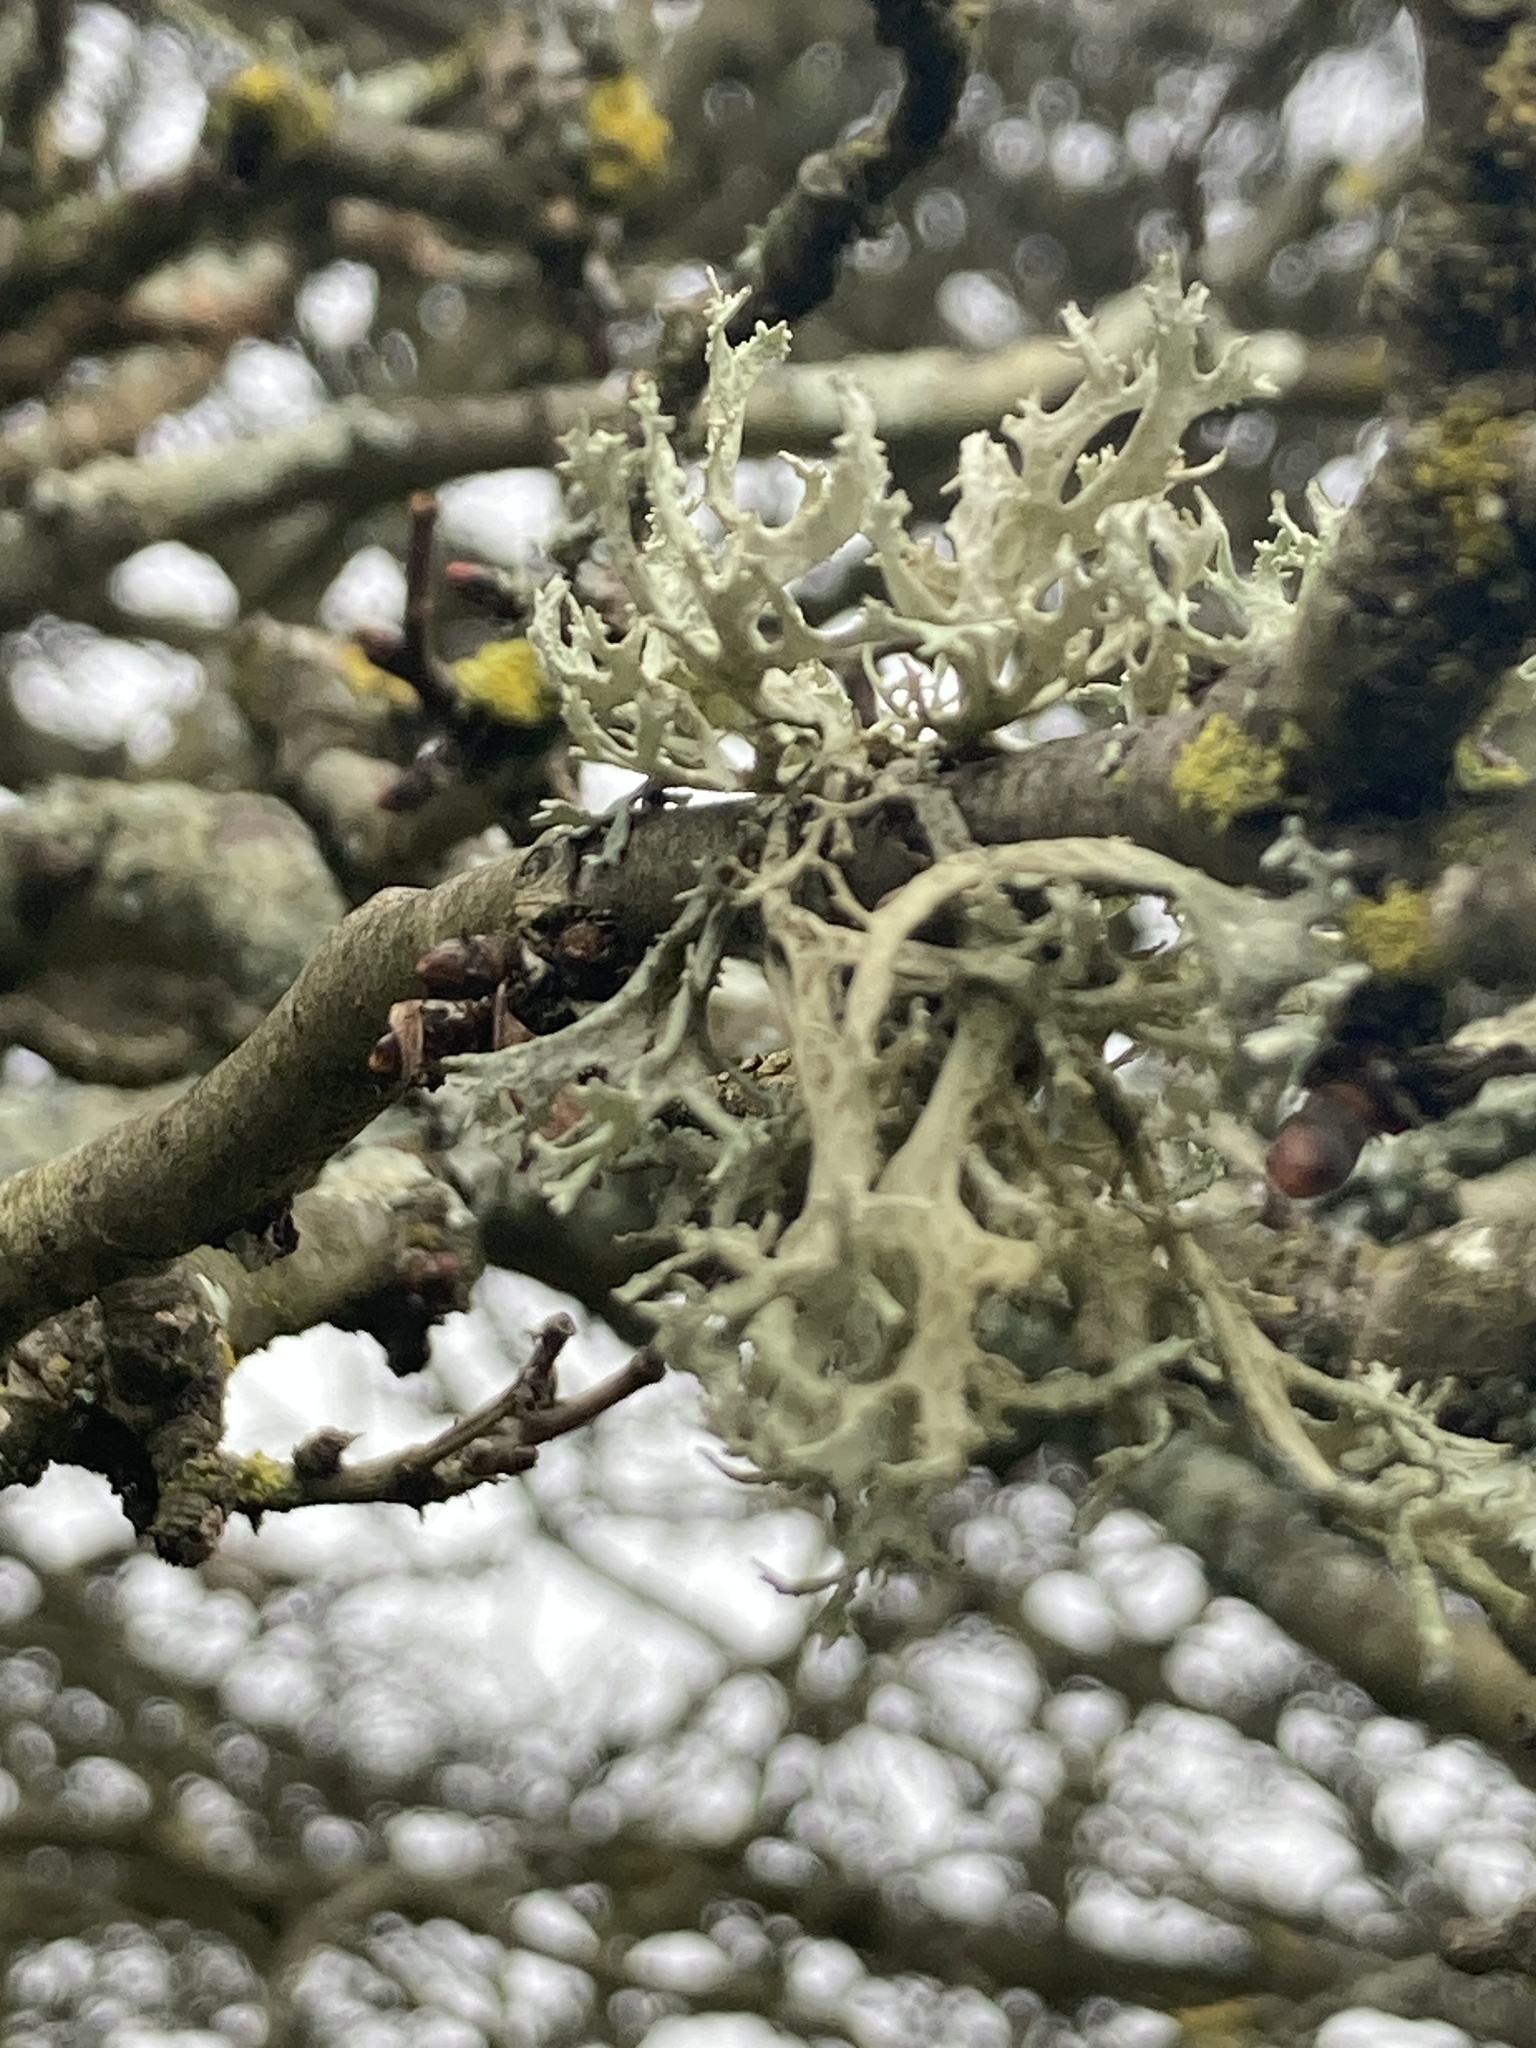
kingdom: Fungi
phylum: Ascomycota
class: Lecanoromycetes
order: Lecanorales
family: Parmeliaceae
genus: Evernia
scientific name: Evernia prunastri
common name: Oak moss
